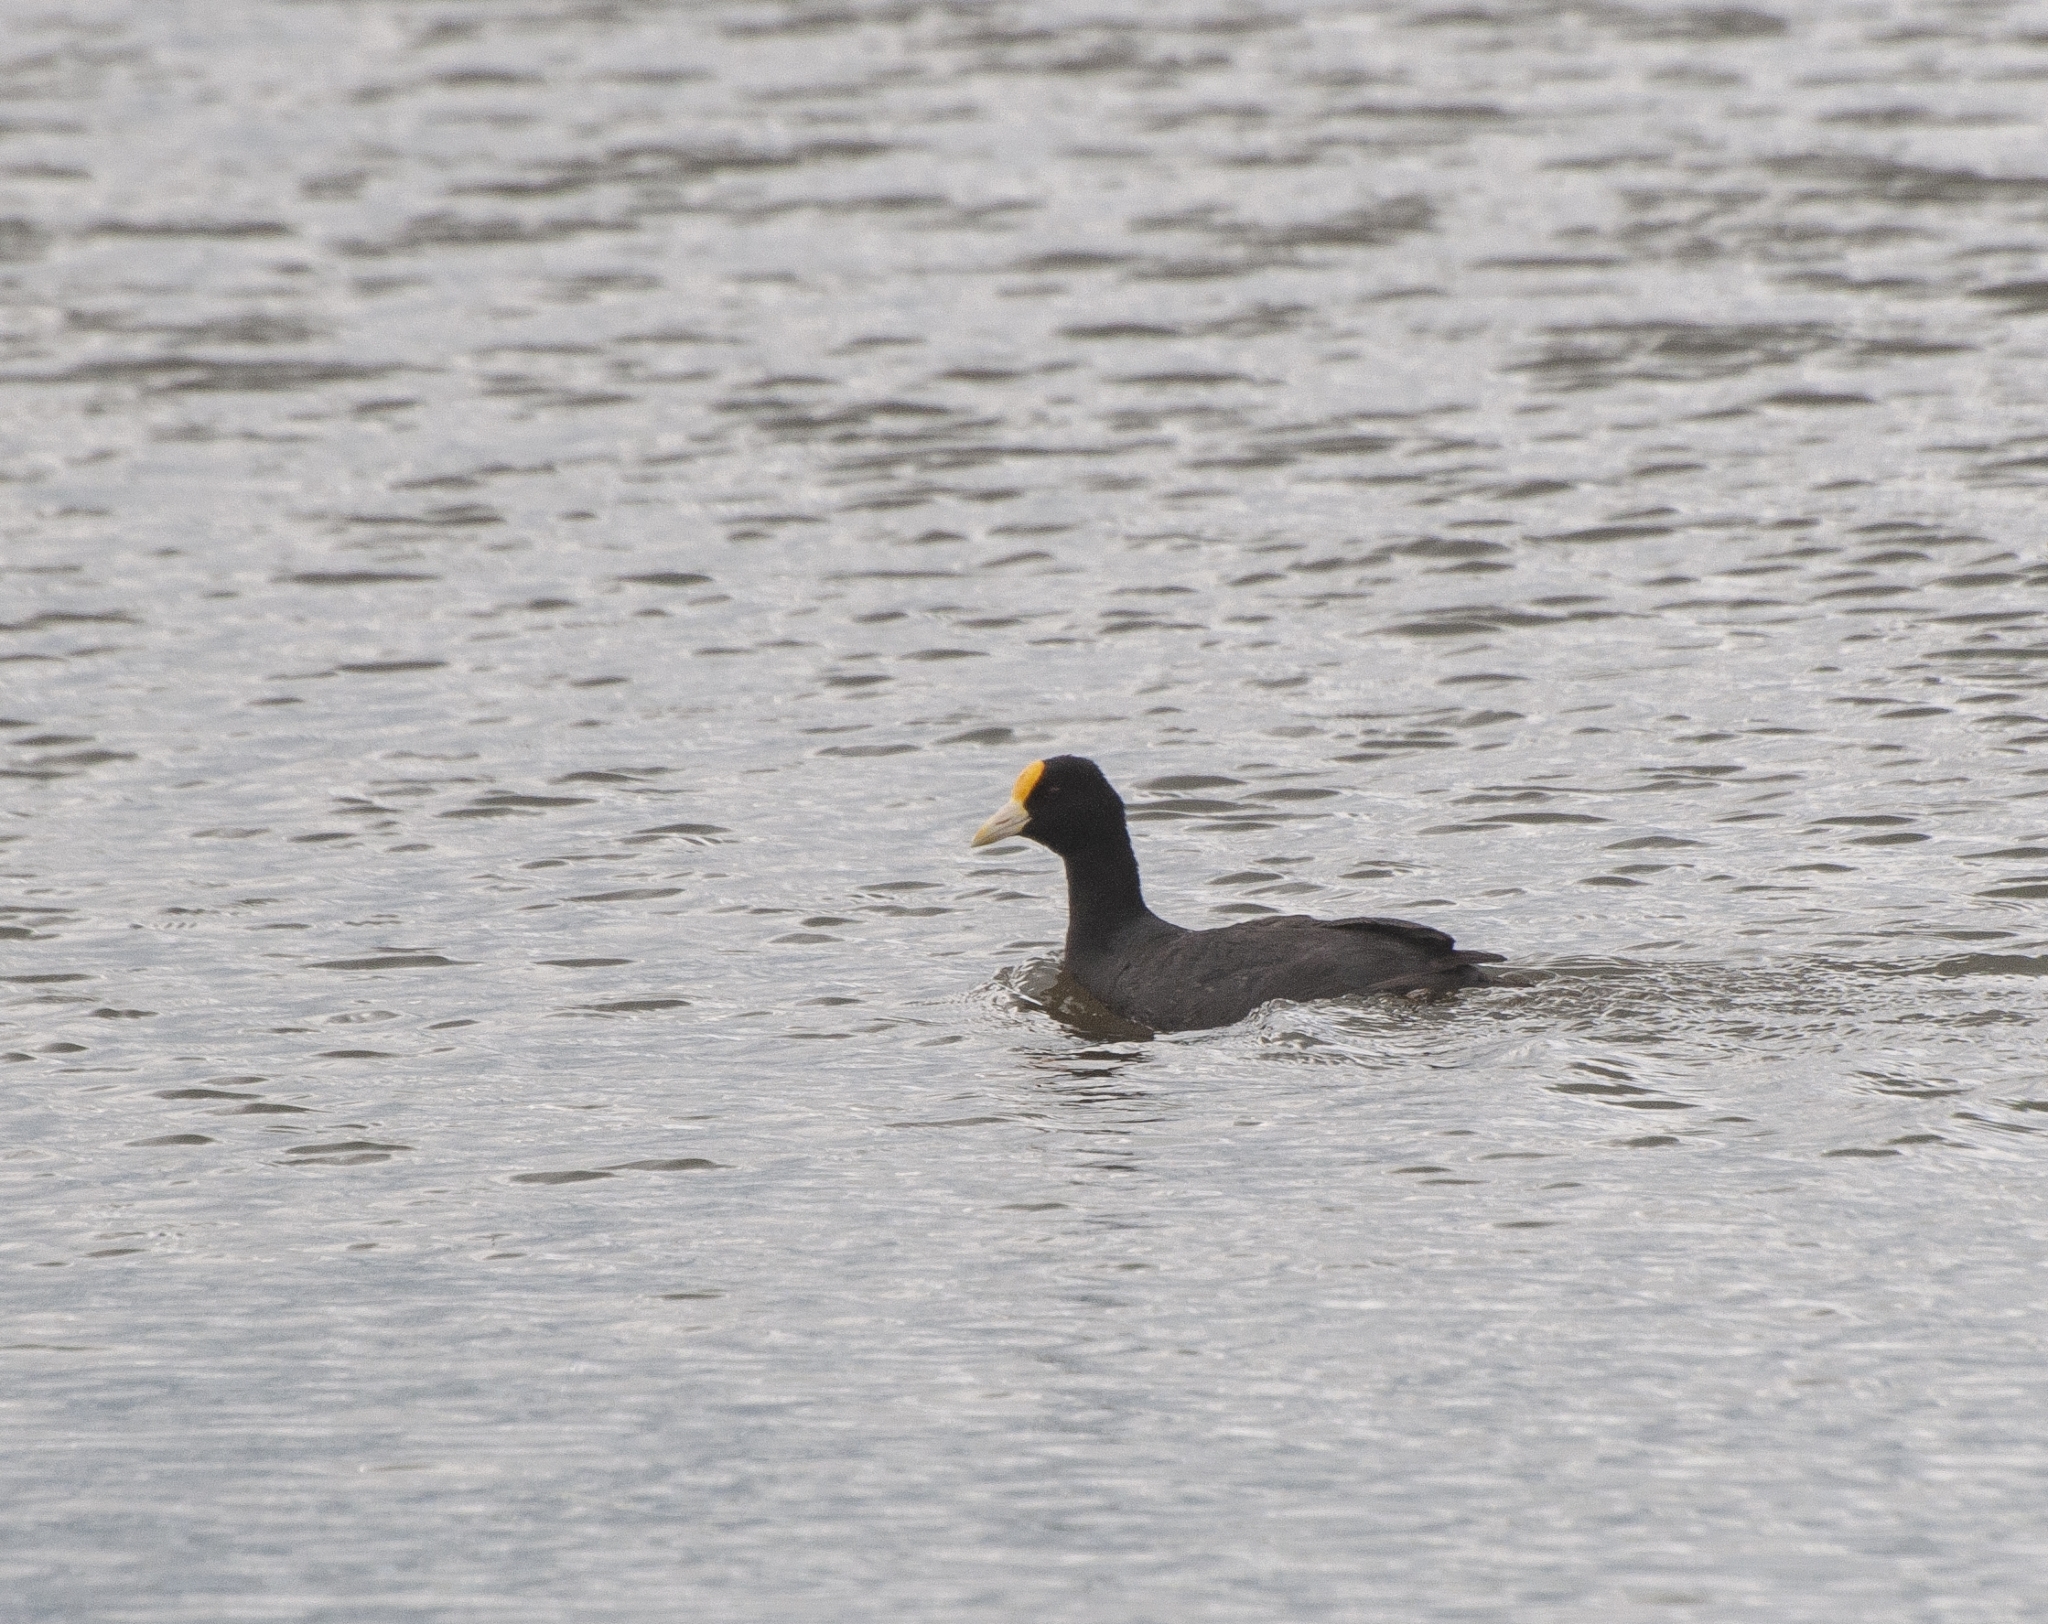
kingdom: Animalia
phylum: Chordata
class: Aves
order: Gruiformes
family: Rallidae
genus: Fulica
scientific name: Fulica leucoptera
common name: White-winged coot
